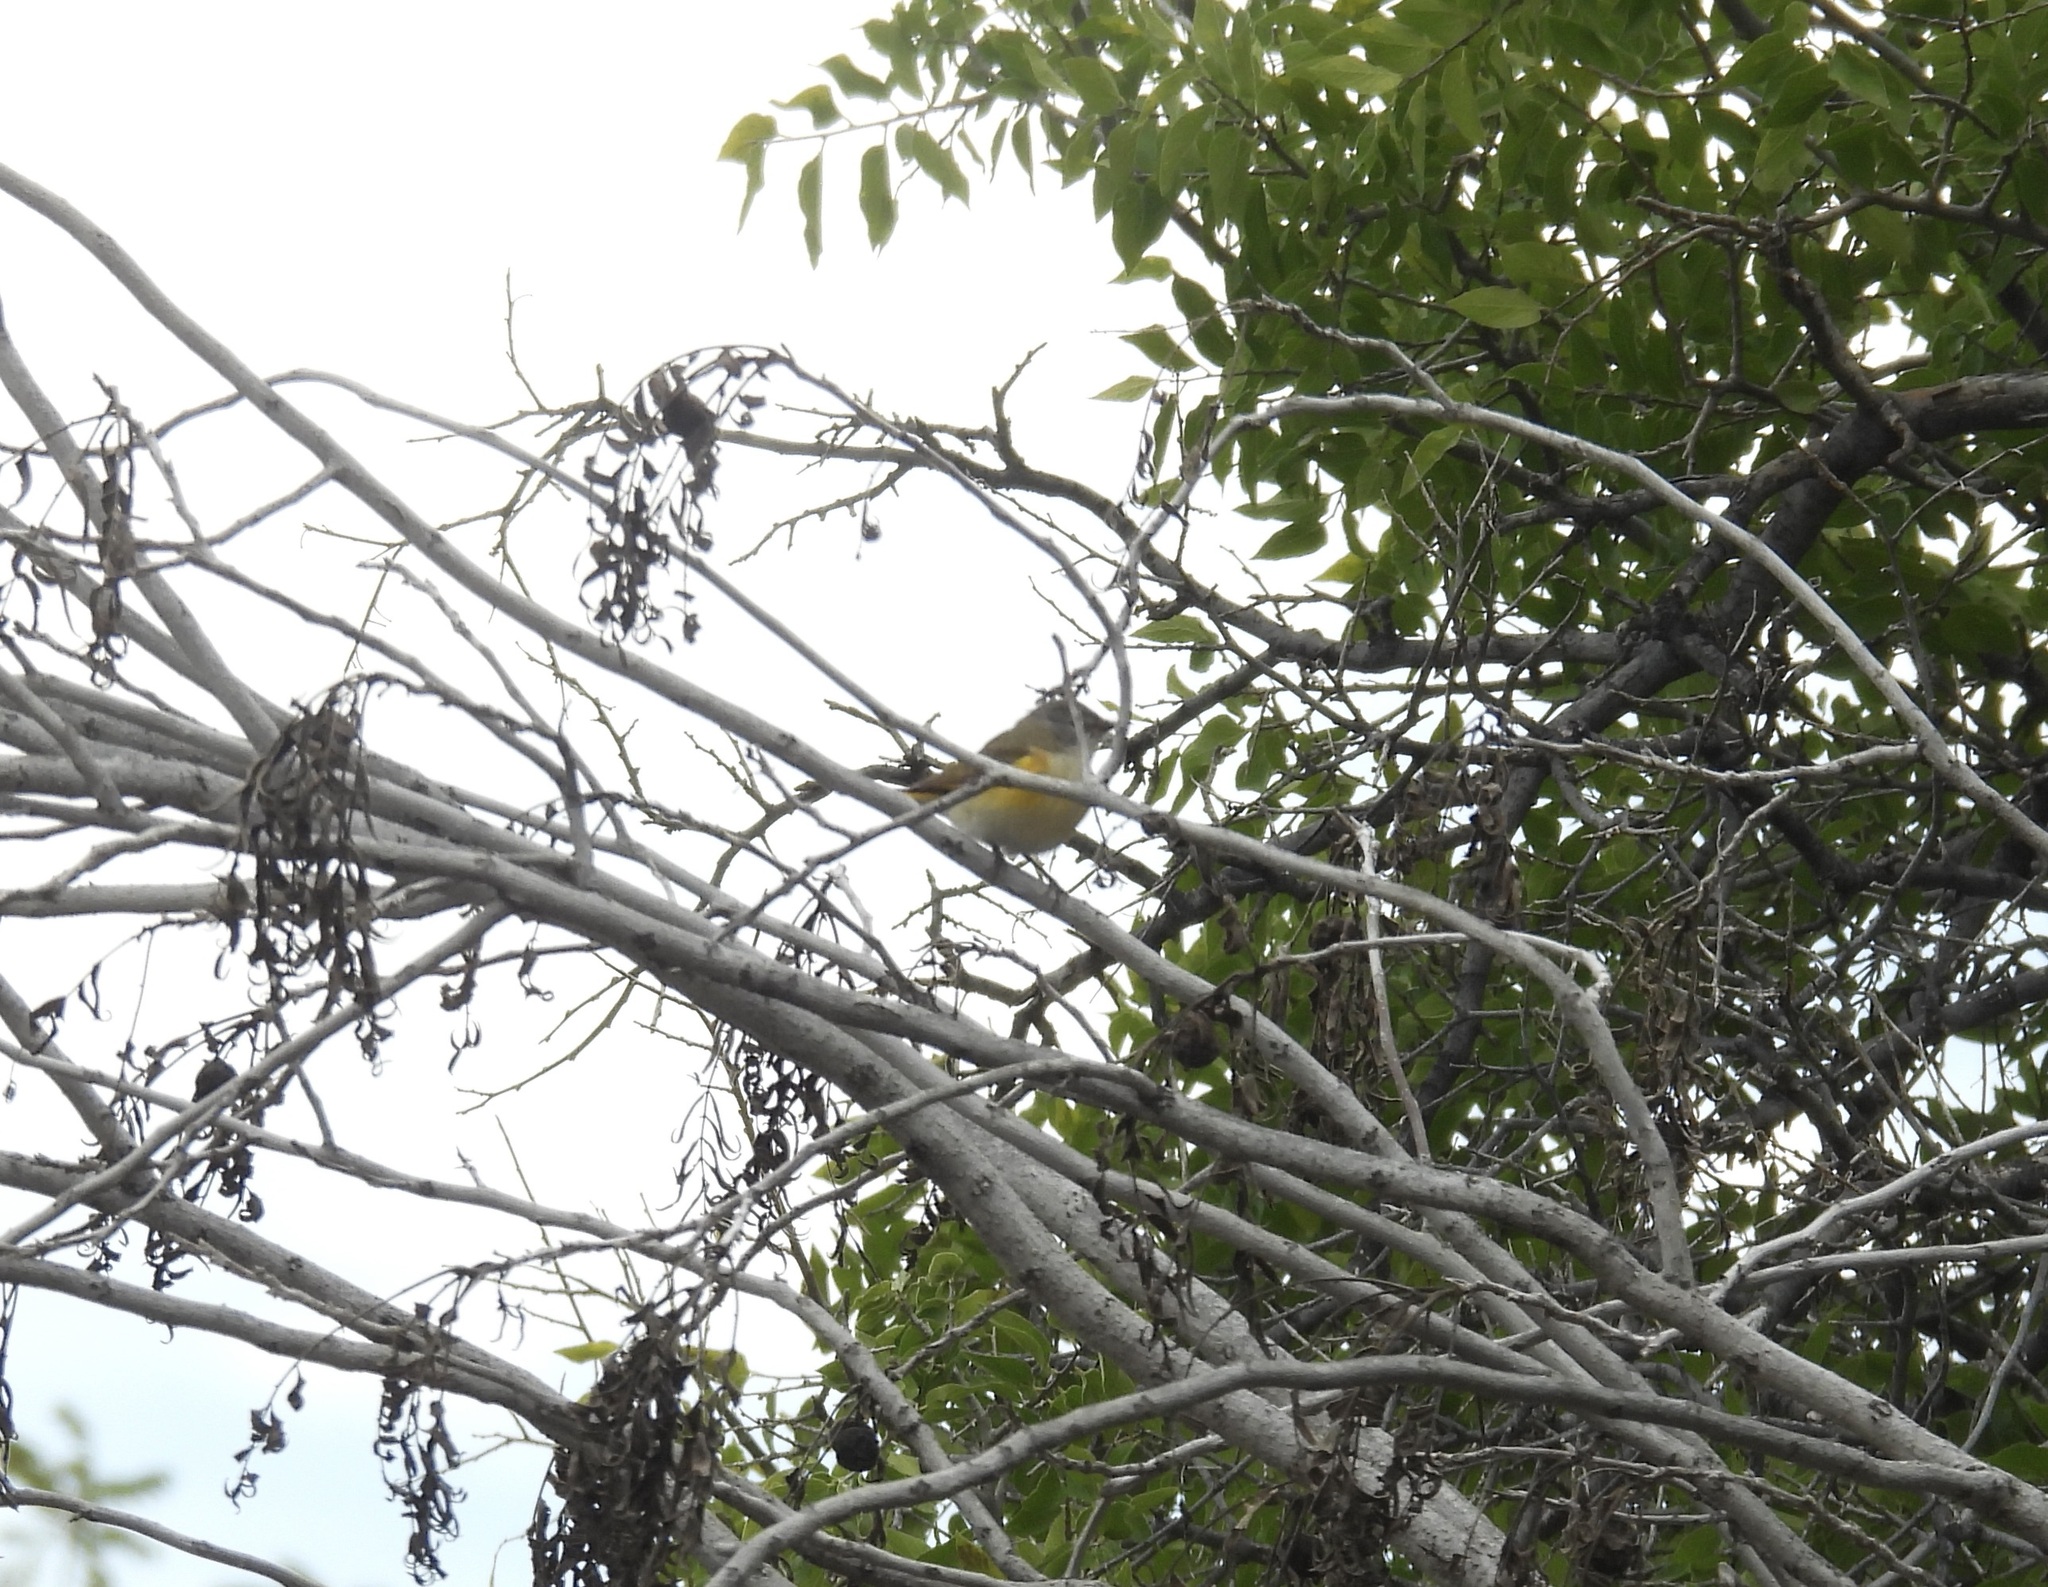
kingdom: Animalia
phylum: Chordata
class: Aves
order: Passeriformes
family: Parulidae
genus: Setophaga
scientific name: Setophaga ruticilla
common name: American redstart
